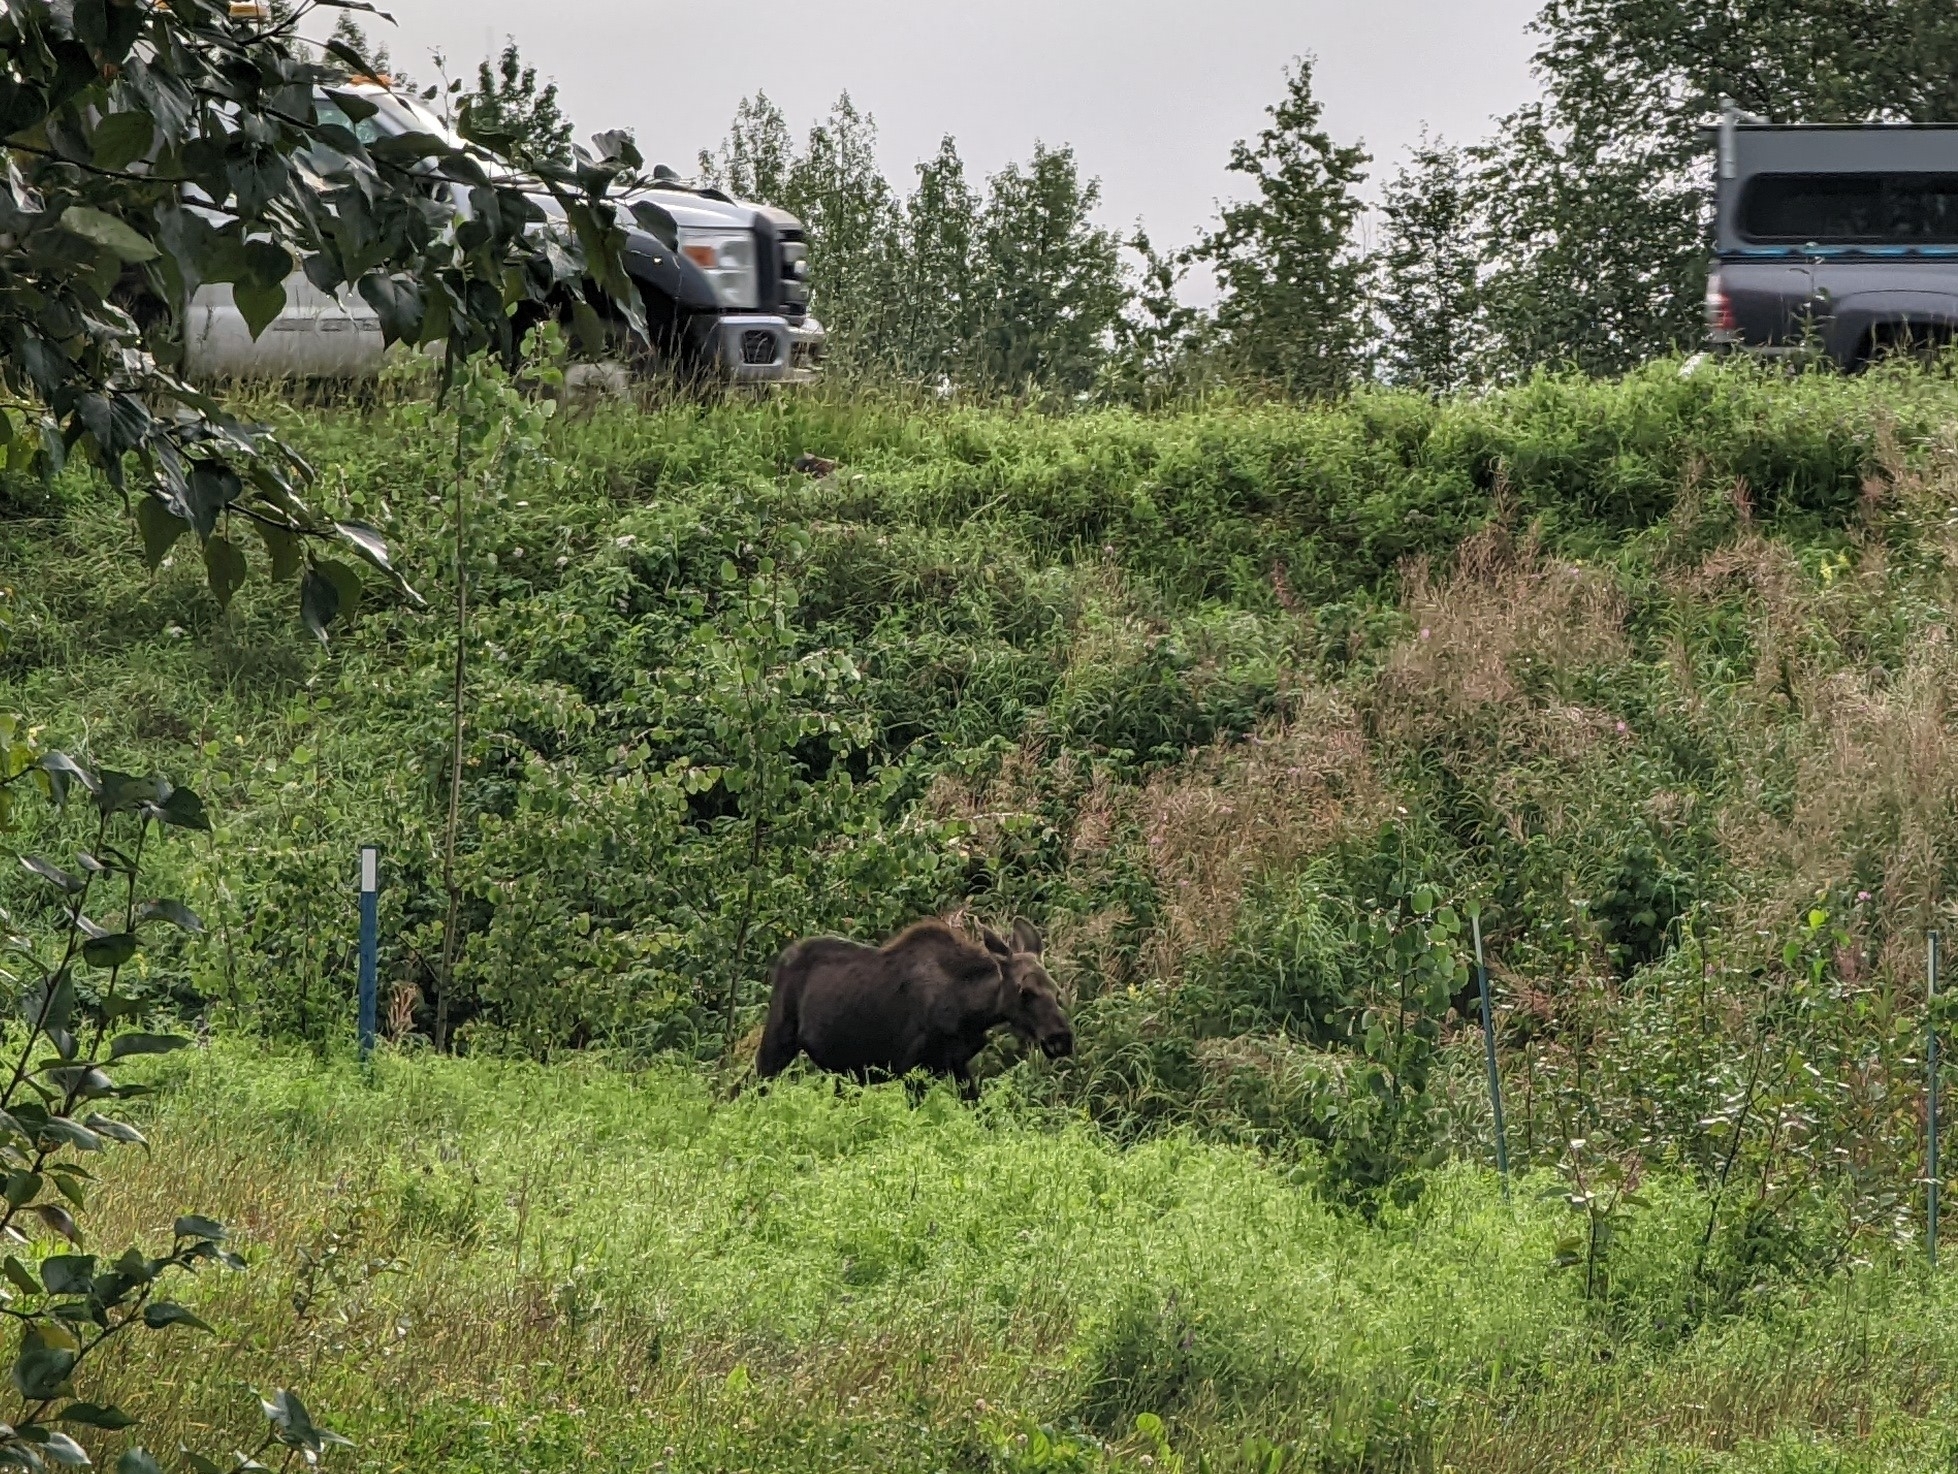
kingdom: Animalia
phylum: Chordata
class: Mammalia
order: Artiodactyla
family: Cervidae
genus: Alces
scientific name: Alces alces
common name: Moose
